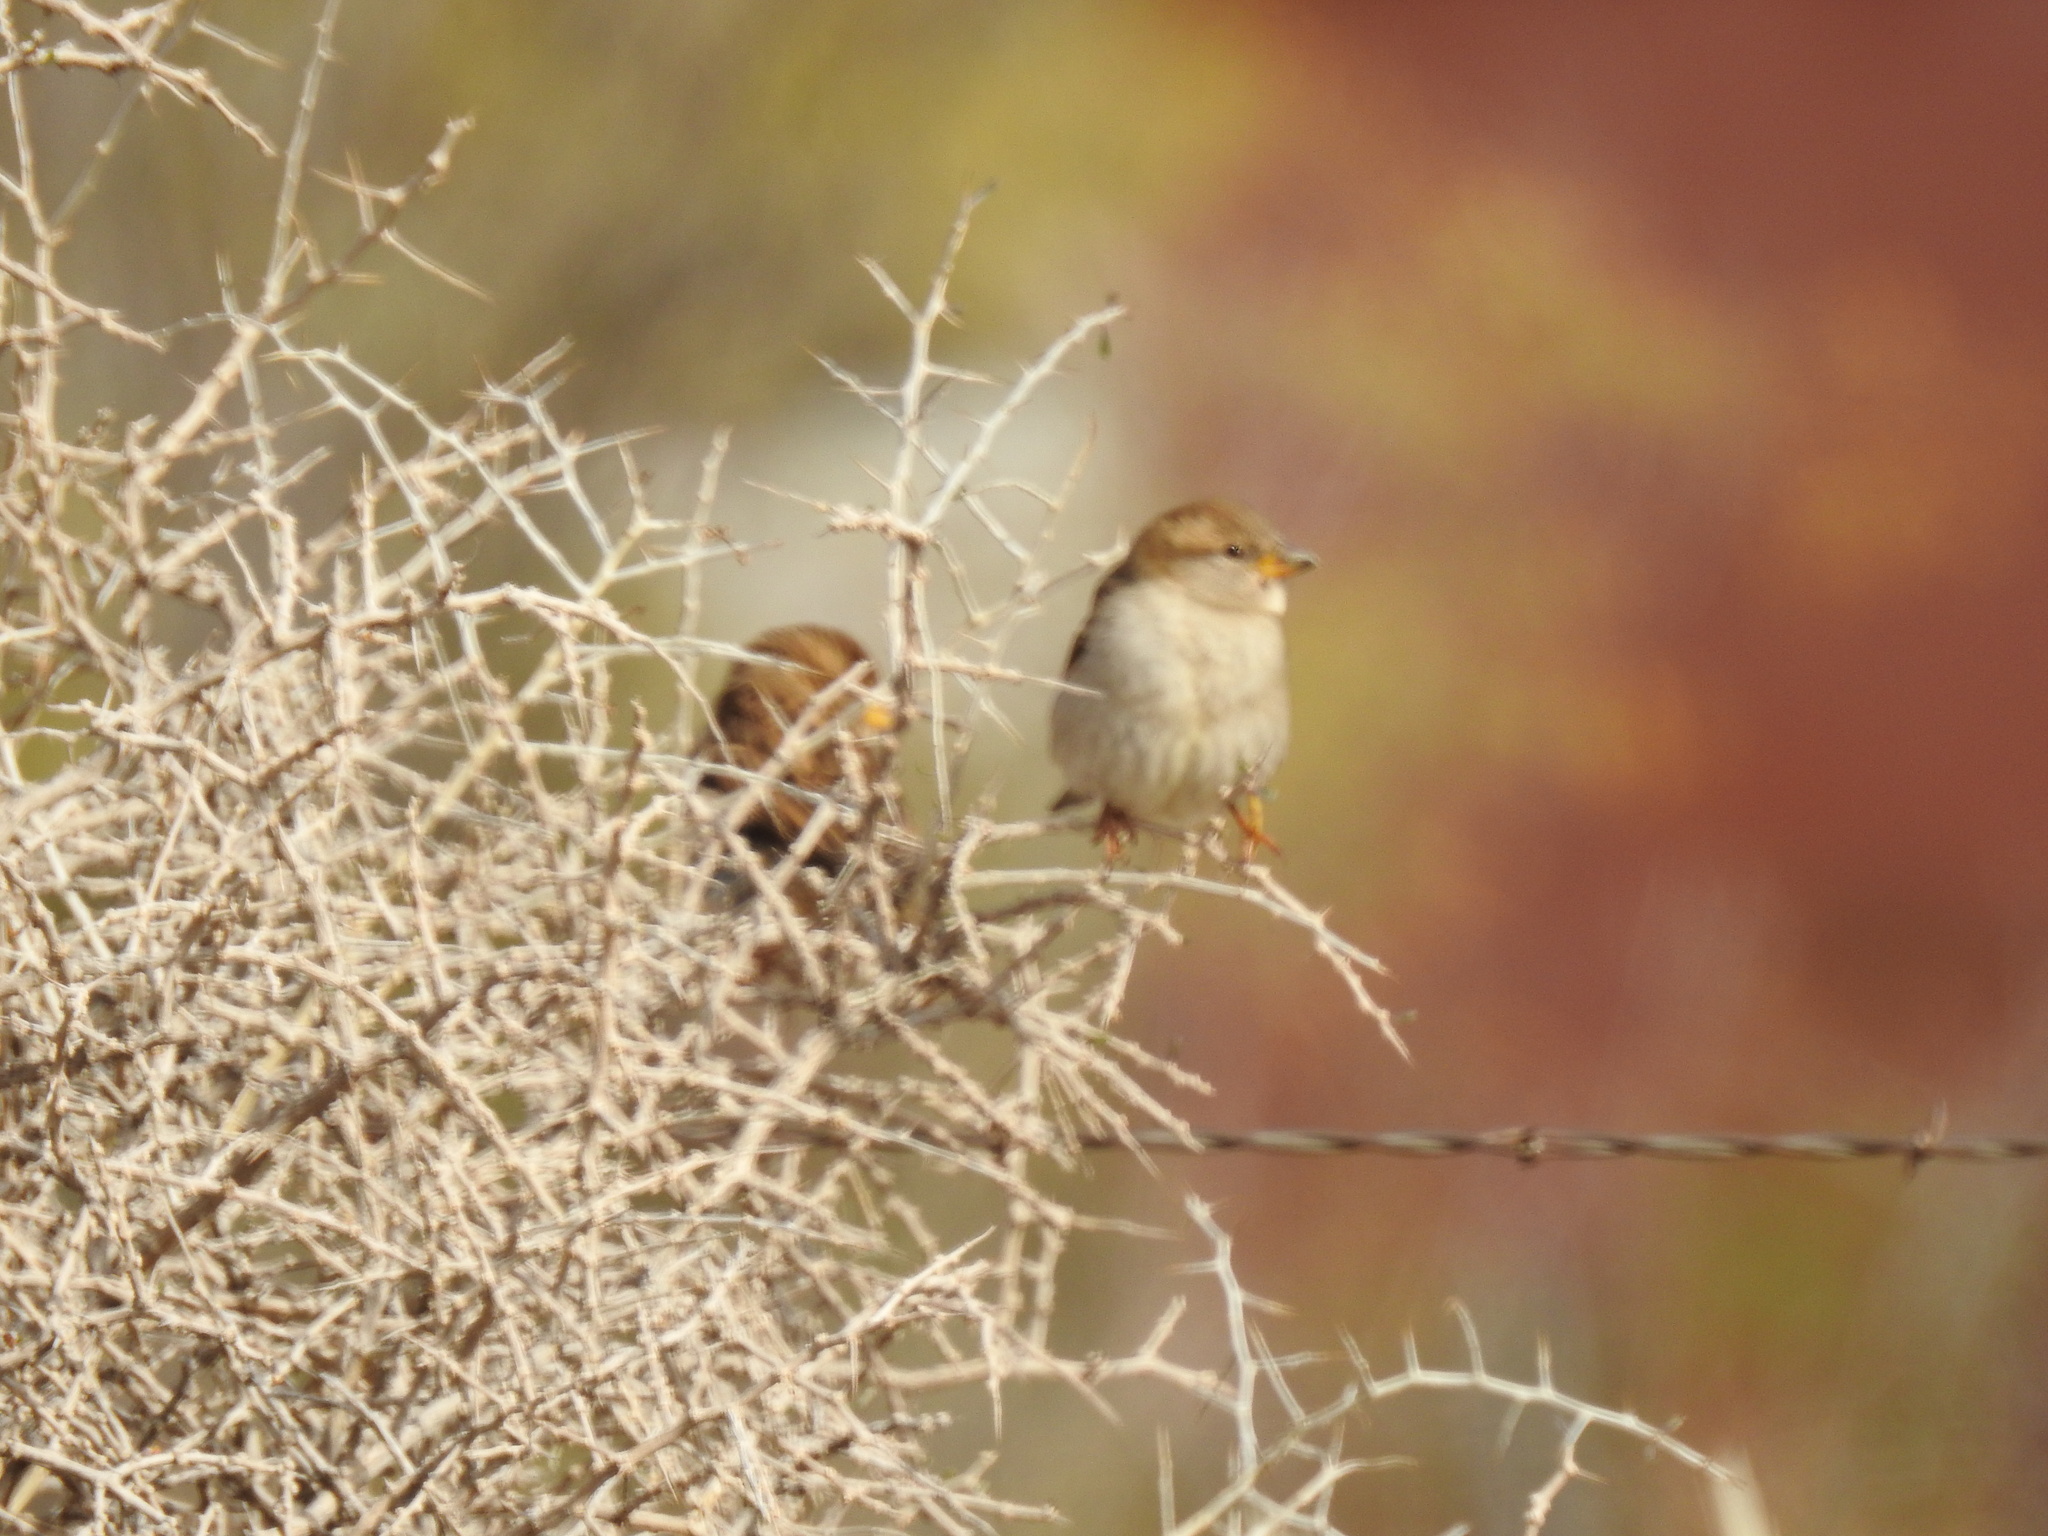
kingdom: Animalia
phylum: Chordata
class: Aves
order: Passeriformes
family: Passeridae
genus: Passer
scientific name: Passer domesticus
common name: House sparrow
